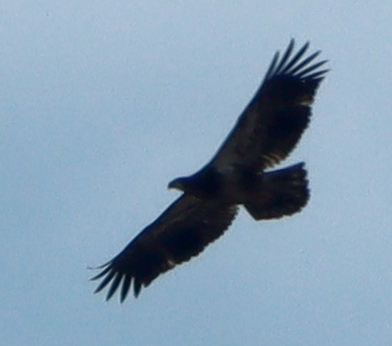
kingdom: Animalia
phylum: Chordata
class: Aves
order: Accipitriformes
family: Accipitridae
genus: Haliaeetus
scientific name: Haliaeetus leucocephalus
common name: Bald eagle
